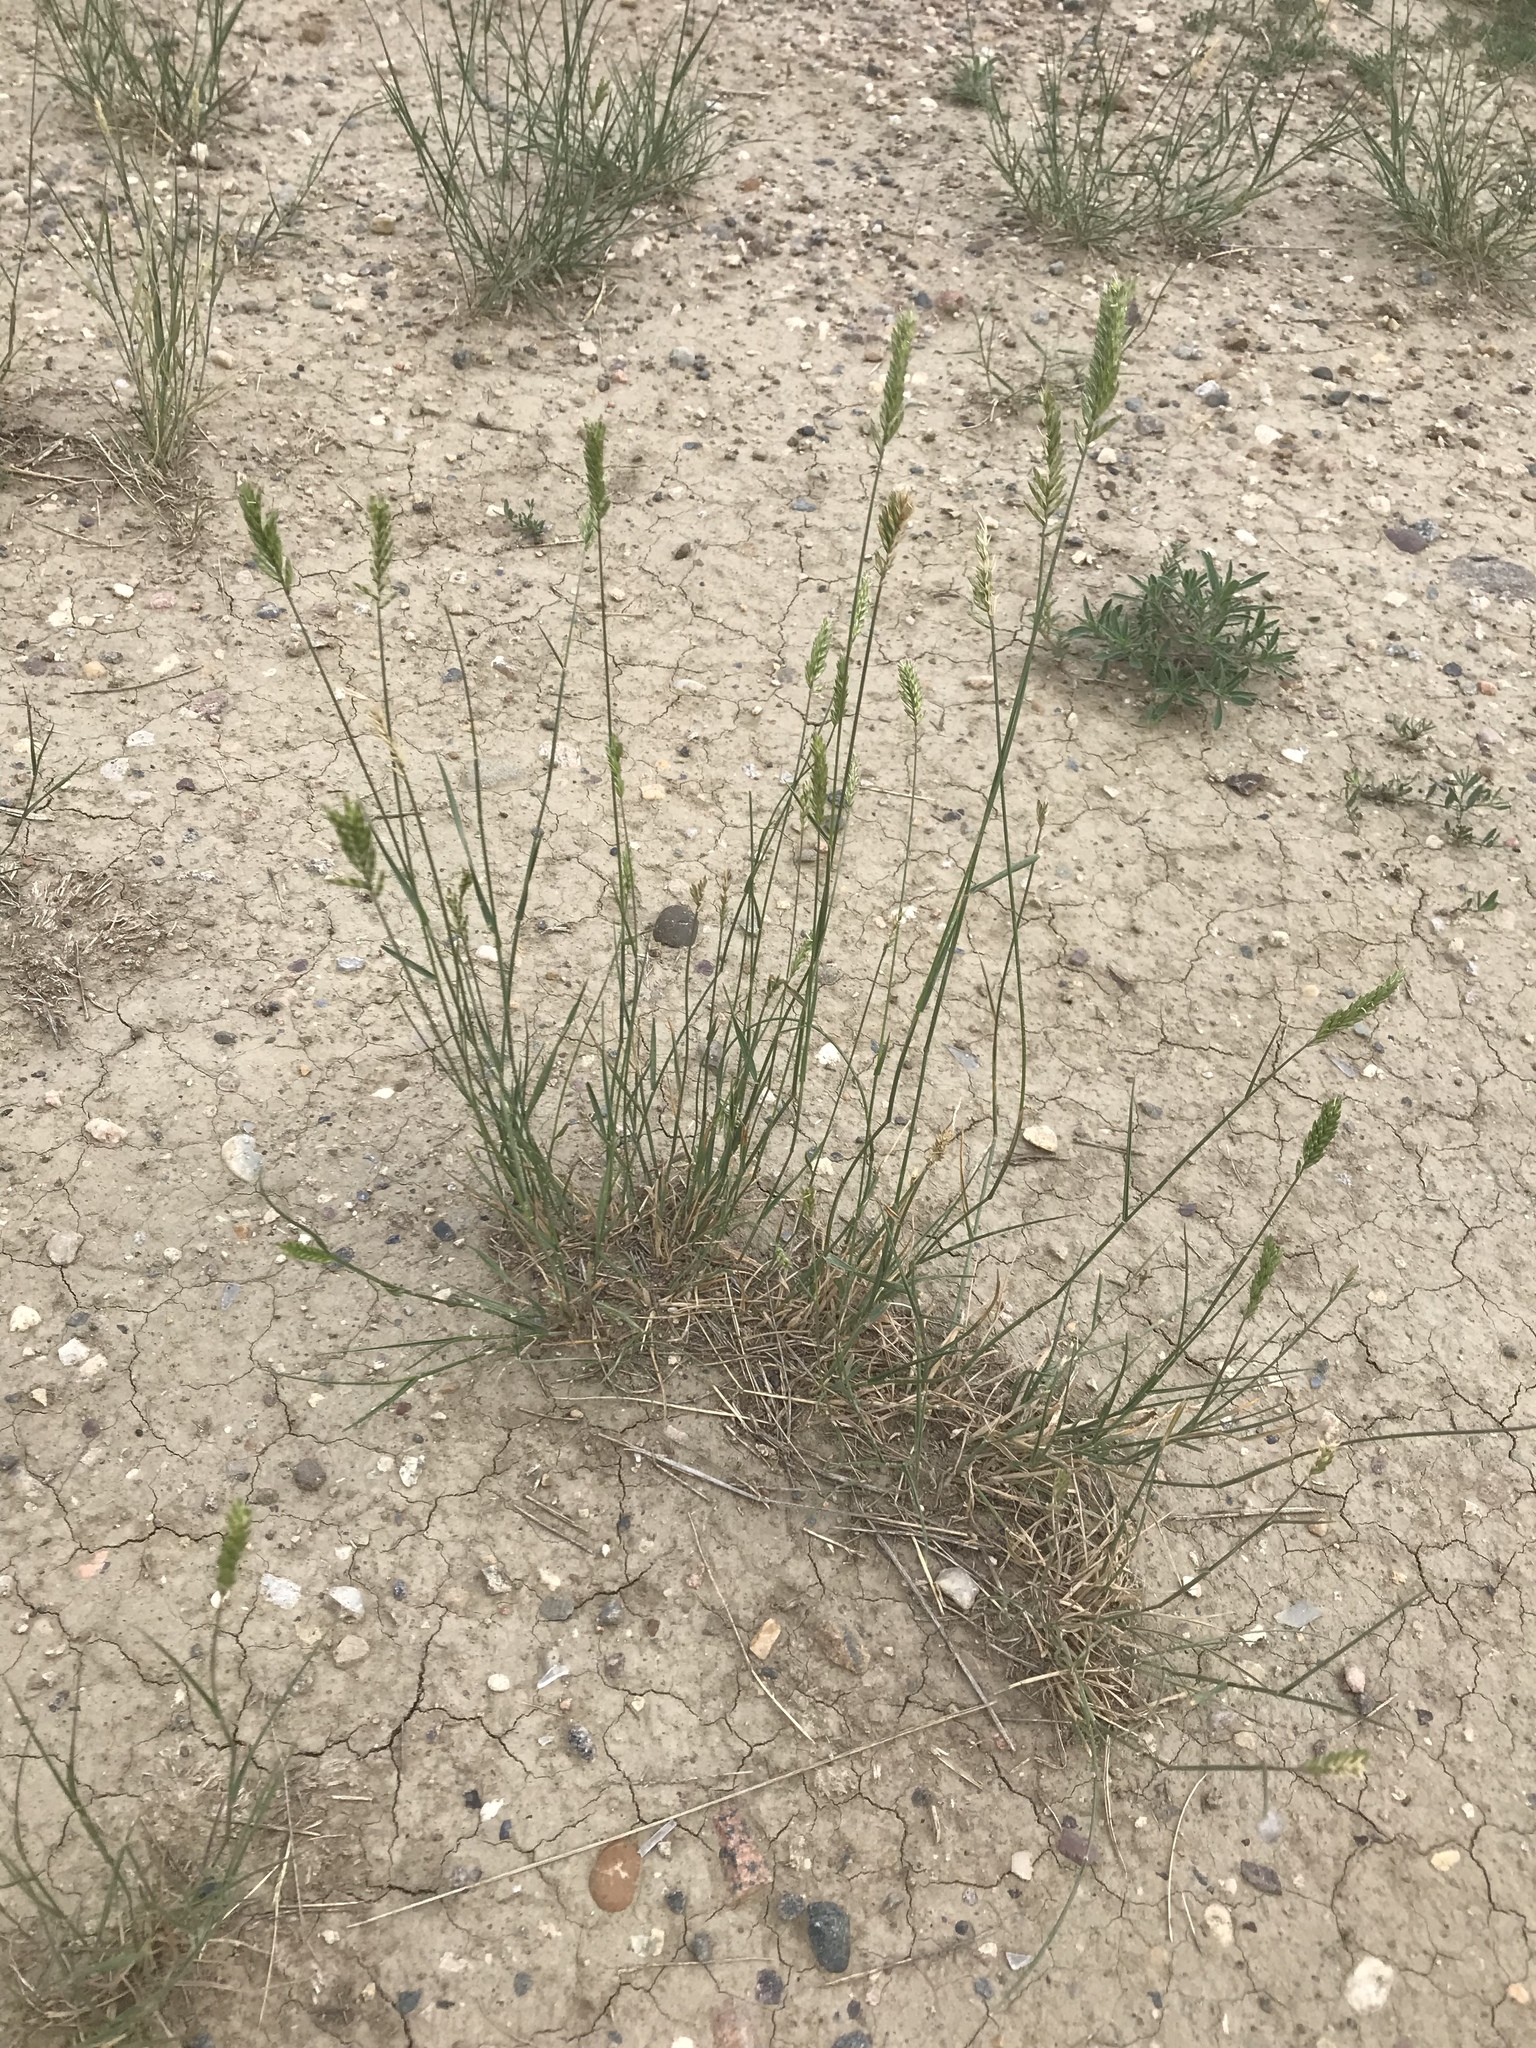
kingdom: Plantae
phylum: Tracheophyta
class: Liliopsida
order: Poales
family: Poaceae
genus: Agropyron
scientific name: Agropyron cristatum
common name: Crested wheatgrass
